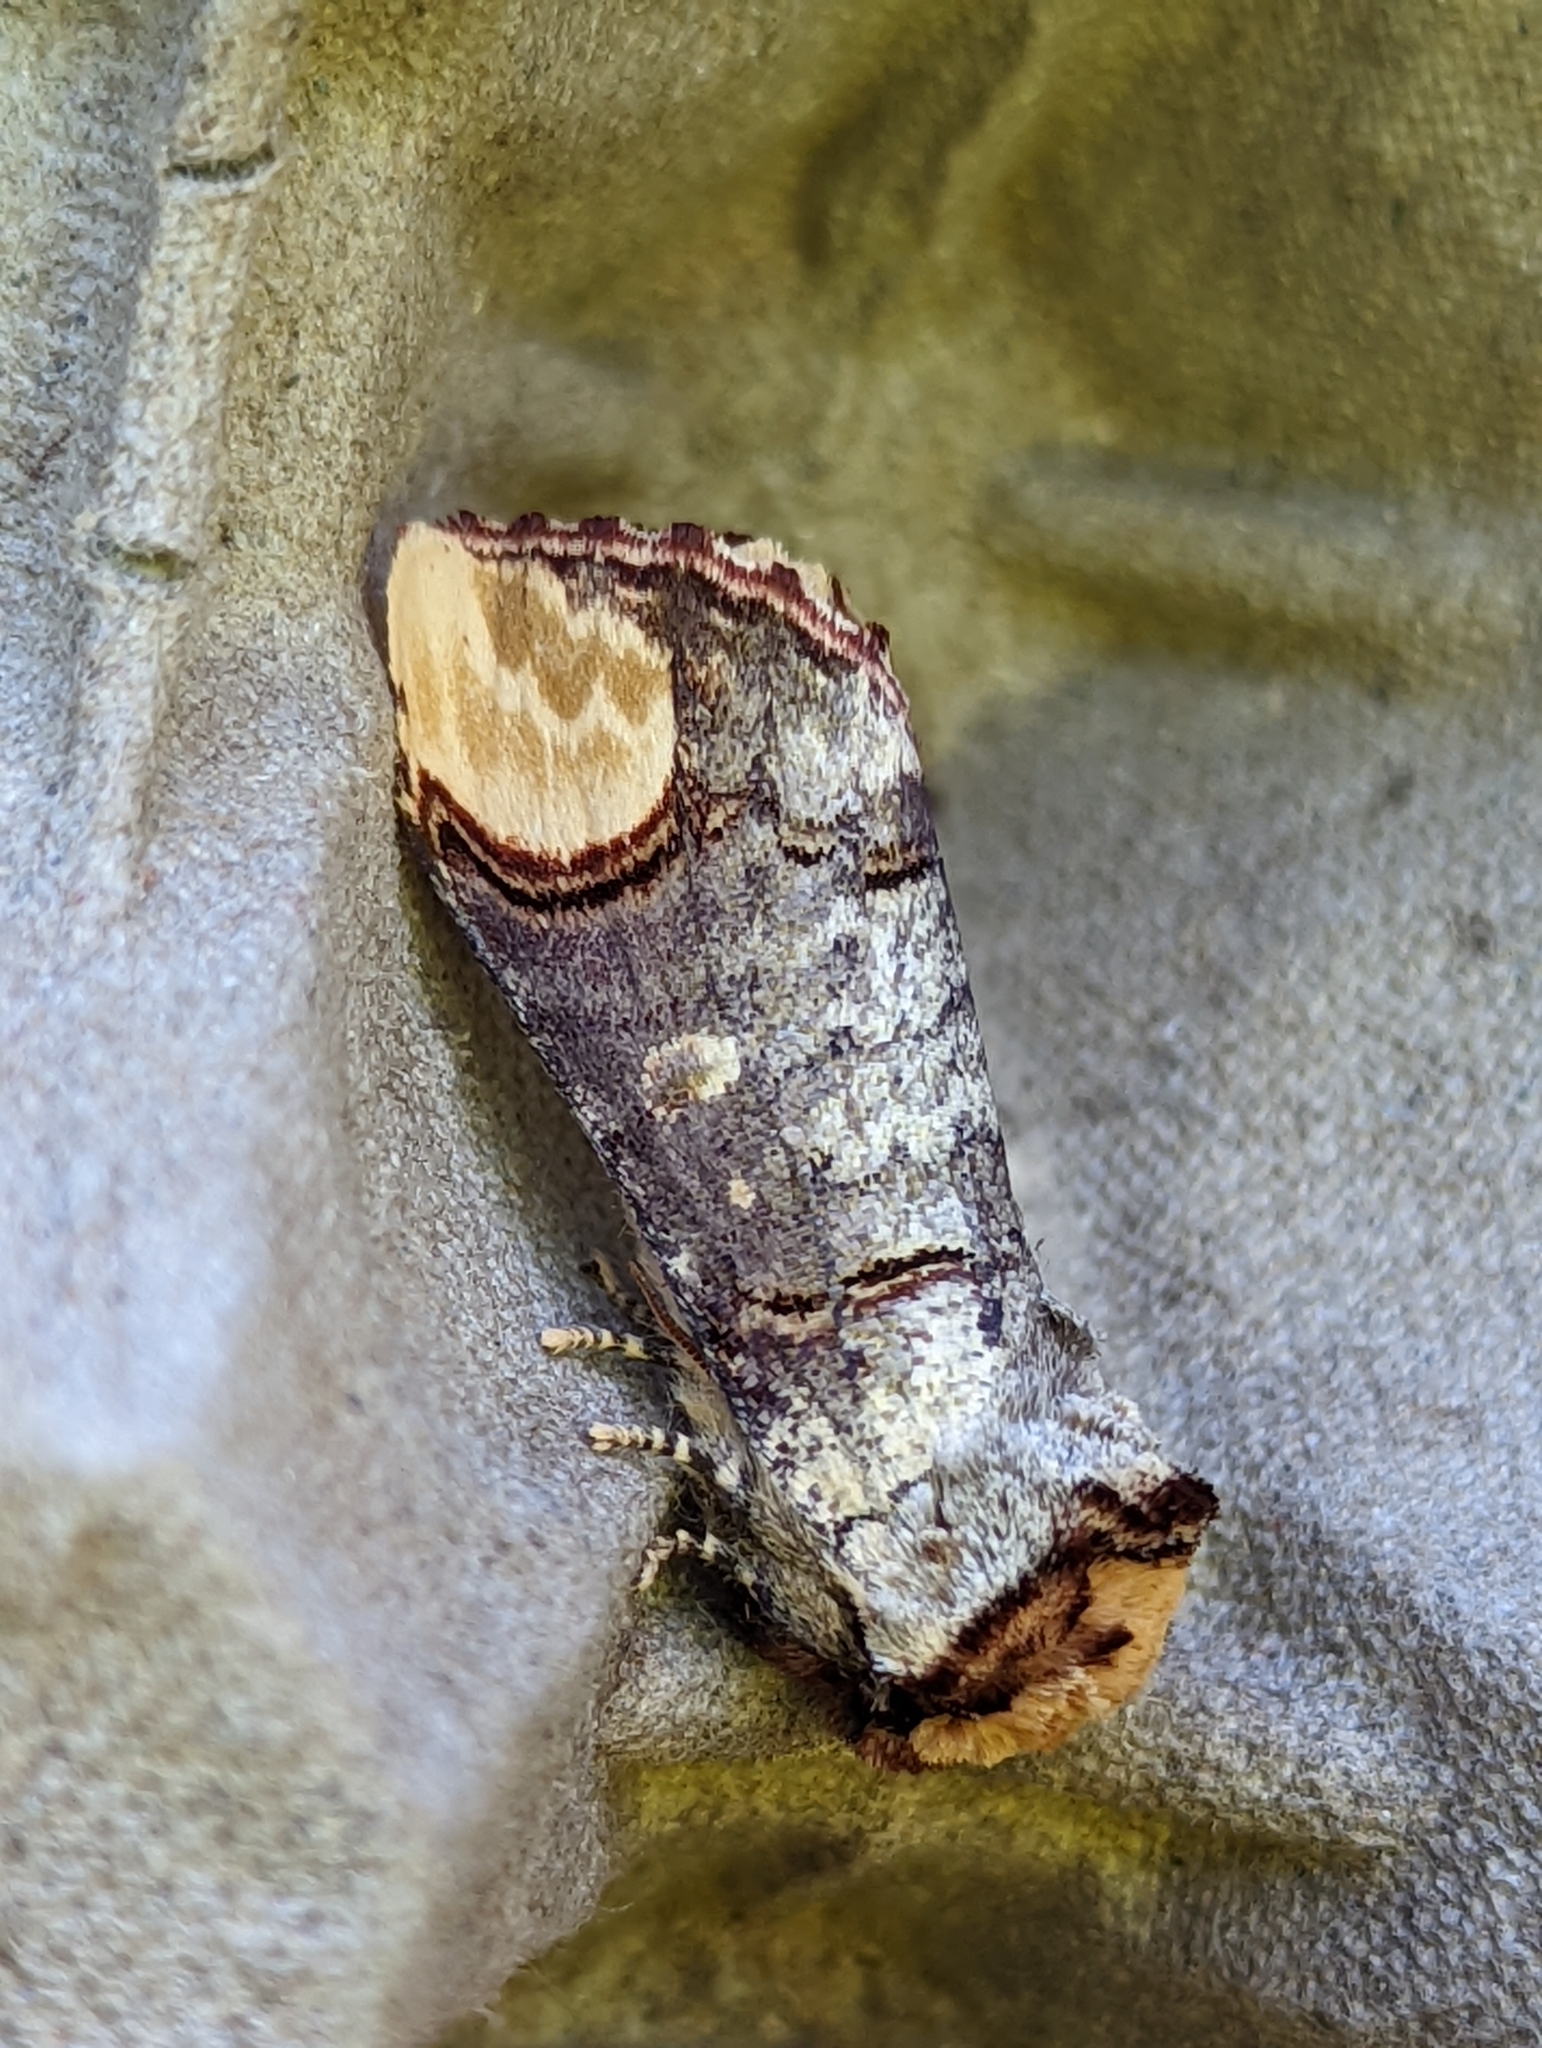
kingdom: Animalia
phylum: Arthropoda
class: Insecta
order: Lepidoptera
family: Notodontidae
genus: Phalera
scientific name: Phalera bucephala
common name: Buff-tip
